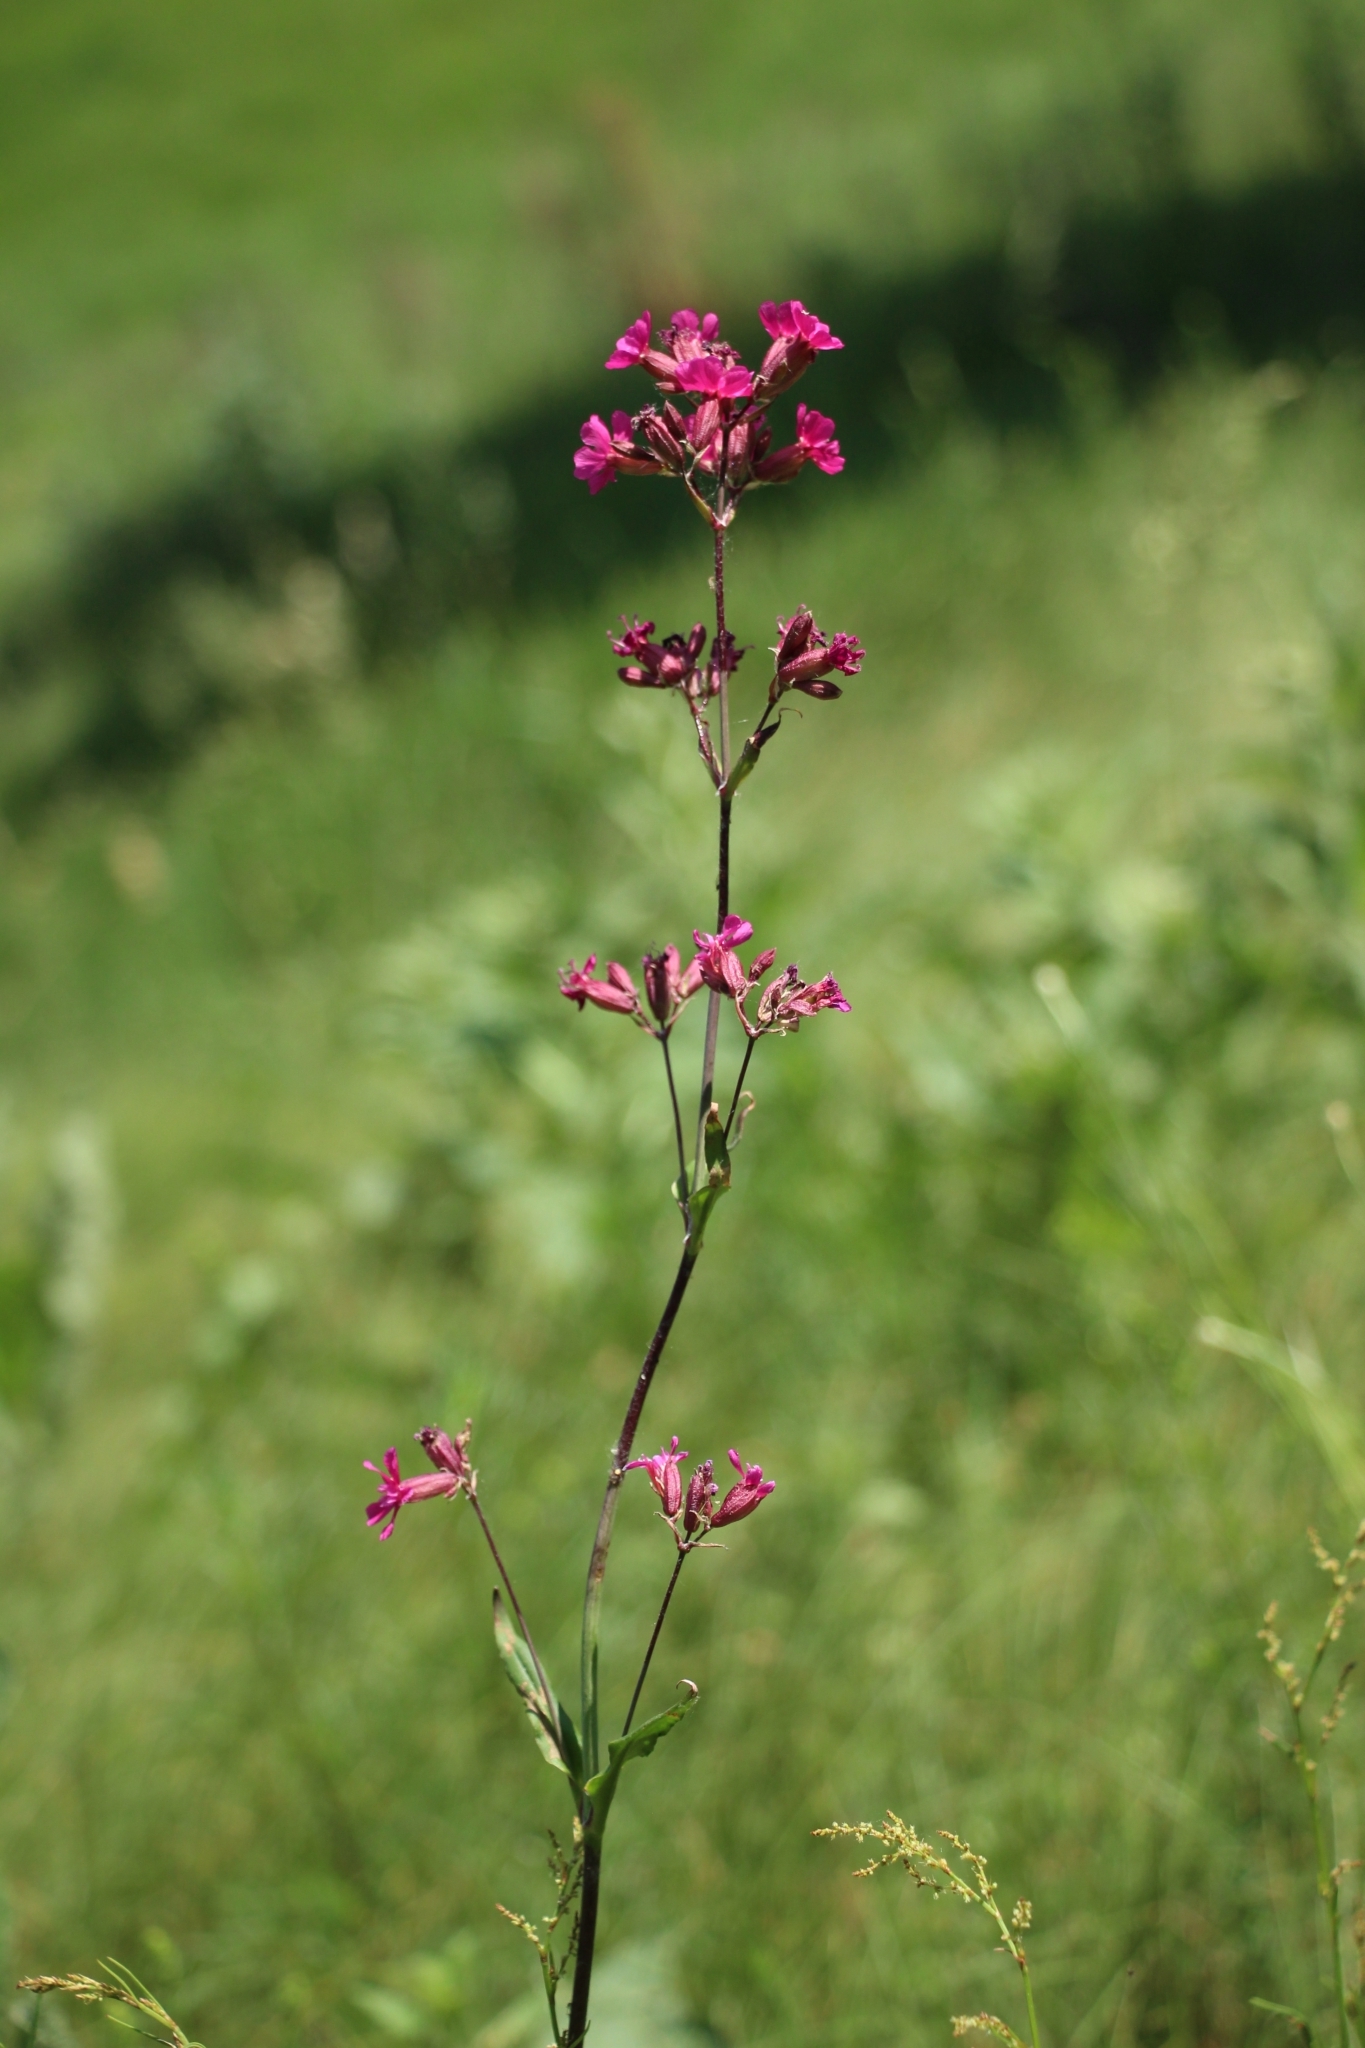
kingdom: Plantae
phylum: Tracheophyta
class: Magnoliopsida
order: Caryophyllales
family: Caryophyllaceae
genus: Viscaria
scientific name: Viscaria vulgaris
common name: Clammy campion
